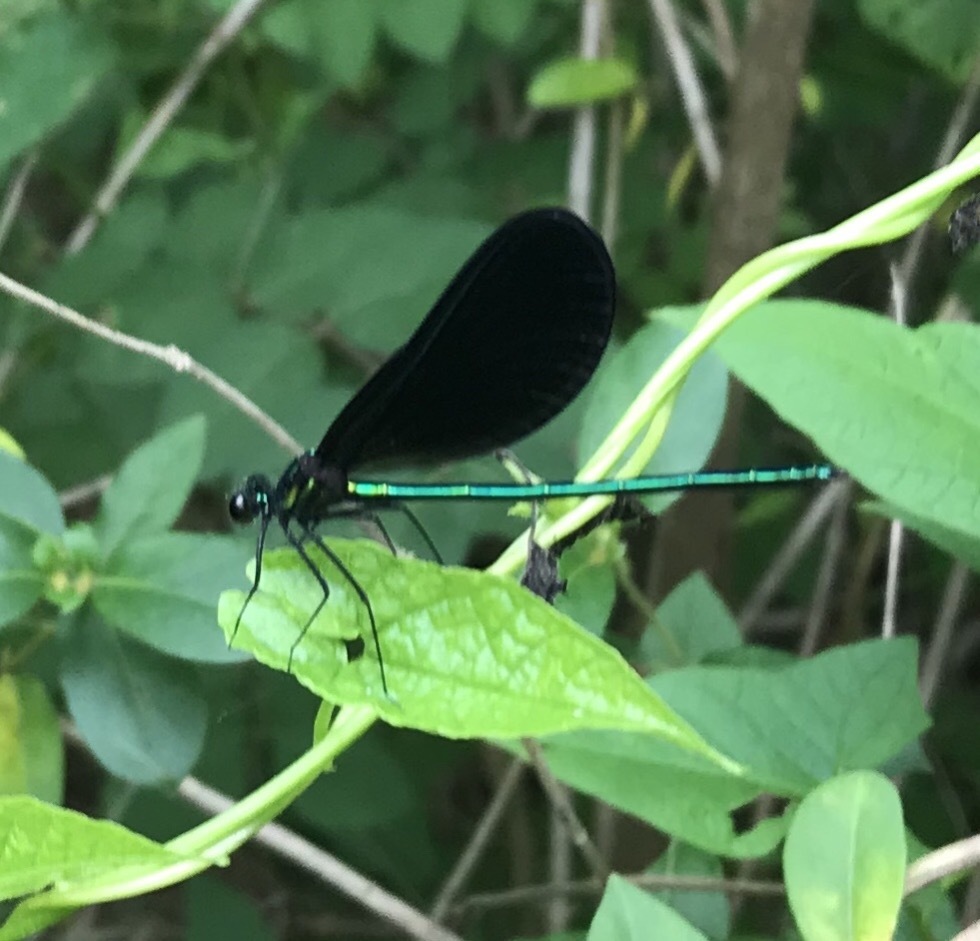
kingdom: Animalia
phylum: Arthropoda
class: Insecta
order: Odonata
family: Calopterygidae
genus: Calopteryx
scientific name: Calopteryx maculata
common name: Ebony jewelwing
